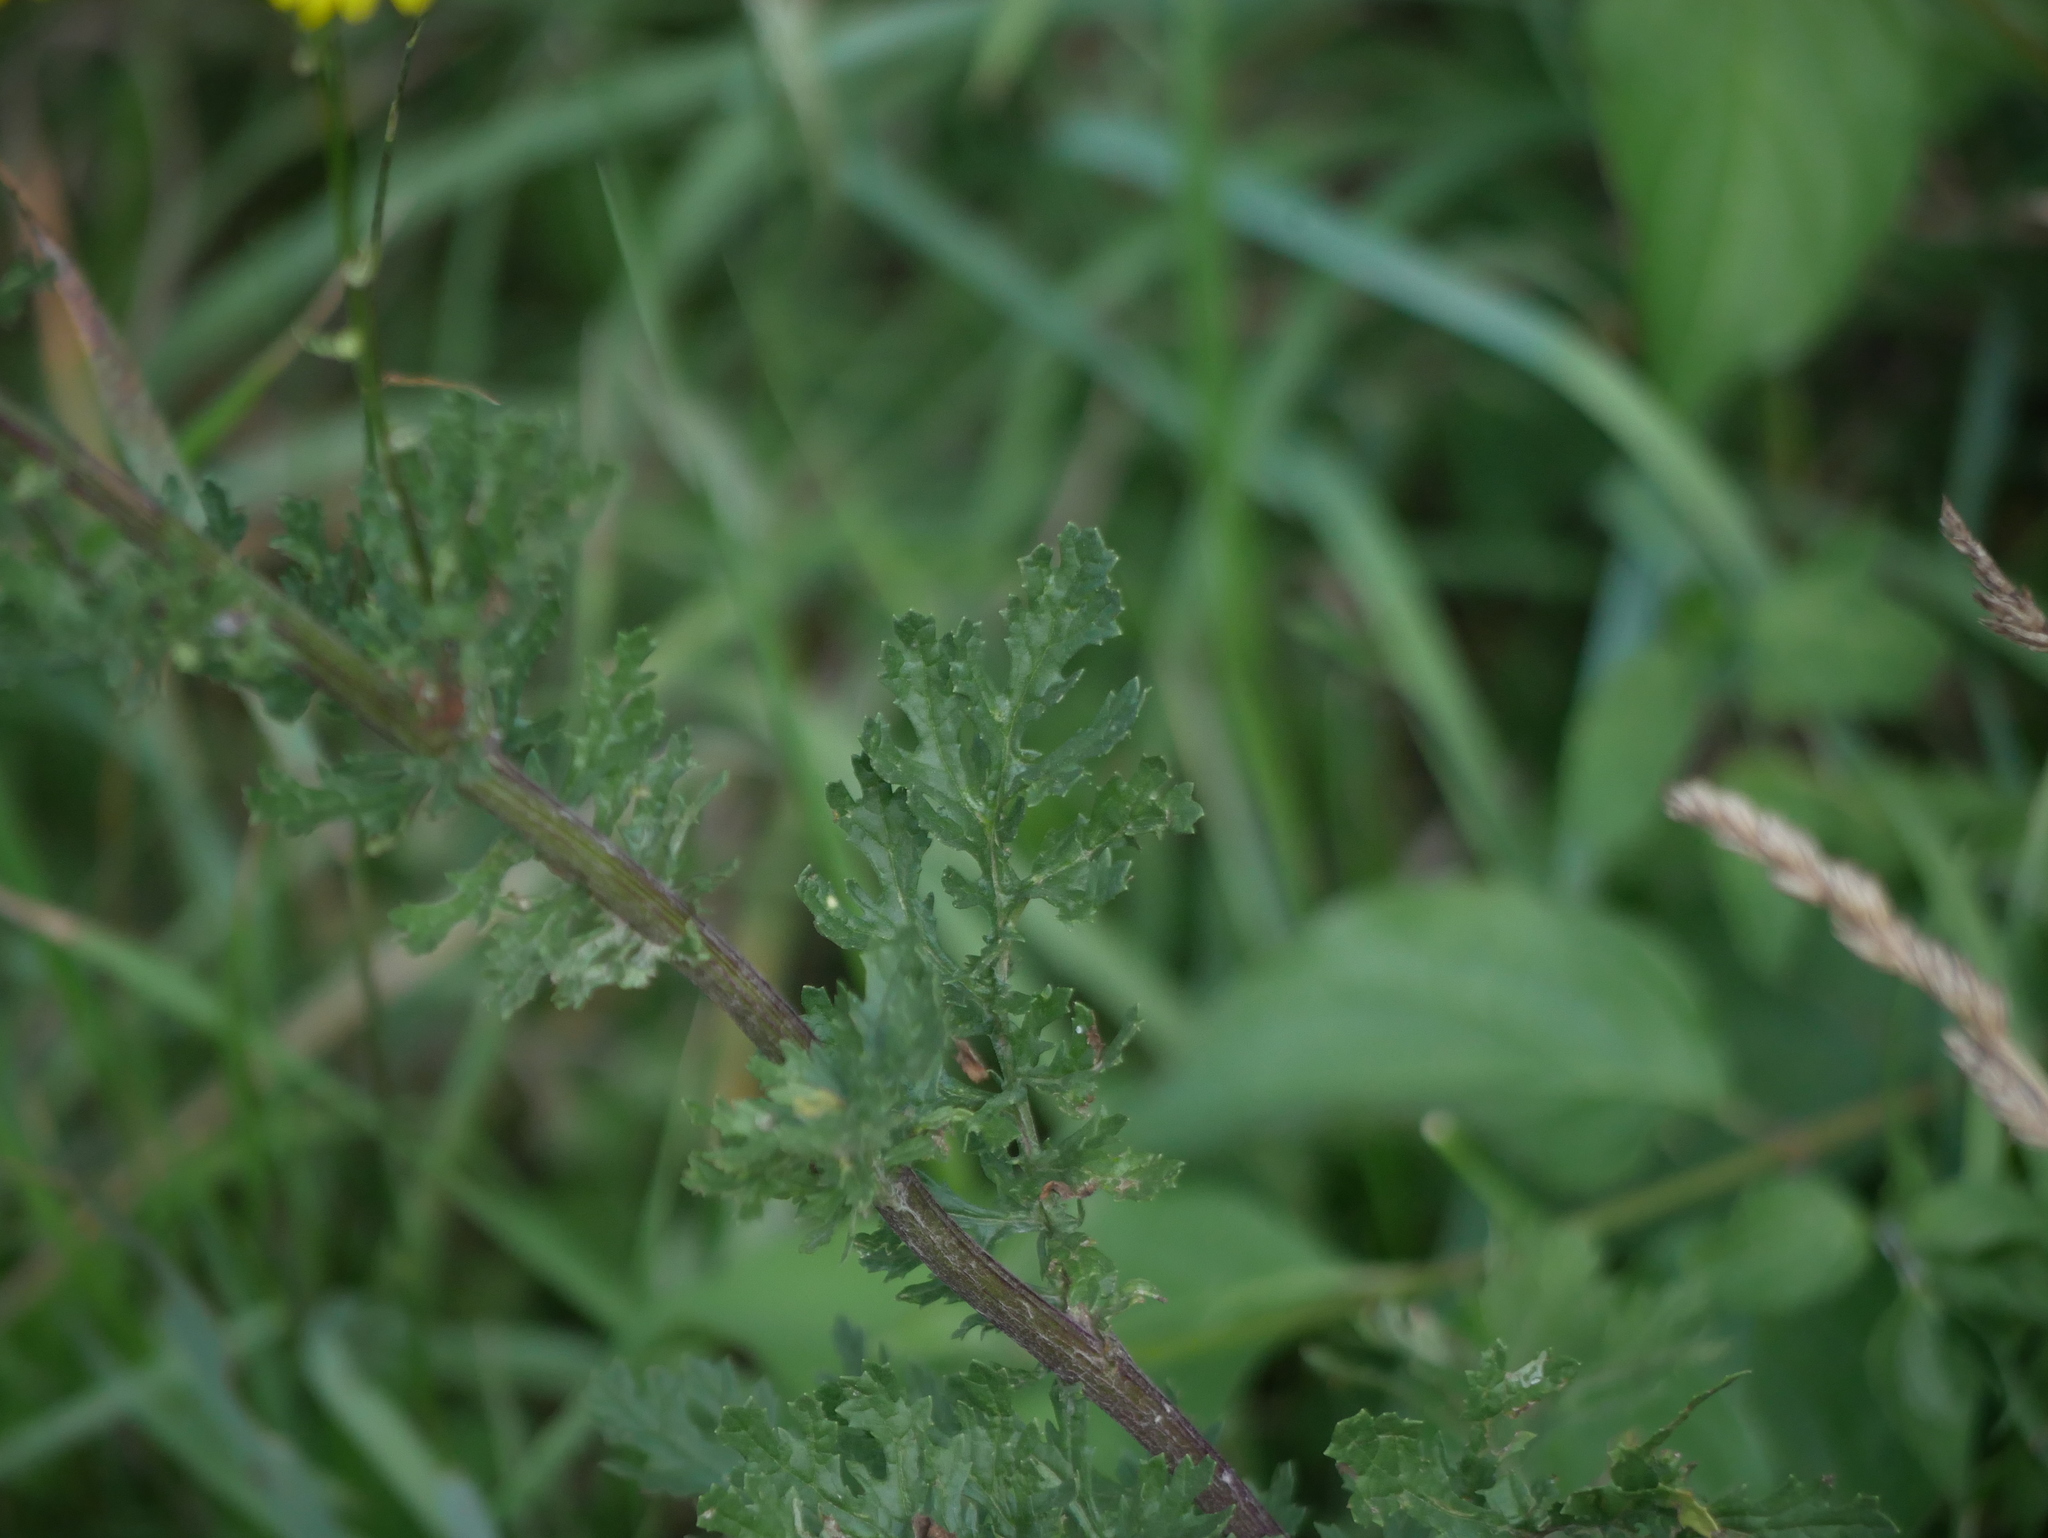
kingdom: Plantae
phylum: Tracheophyta
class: Magnoliopsida
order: Asterales
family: Asteraceae
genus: Jacobaea
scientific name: Jacobaea vulgaris
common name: Stinking willie
